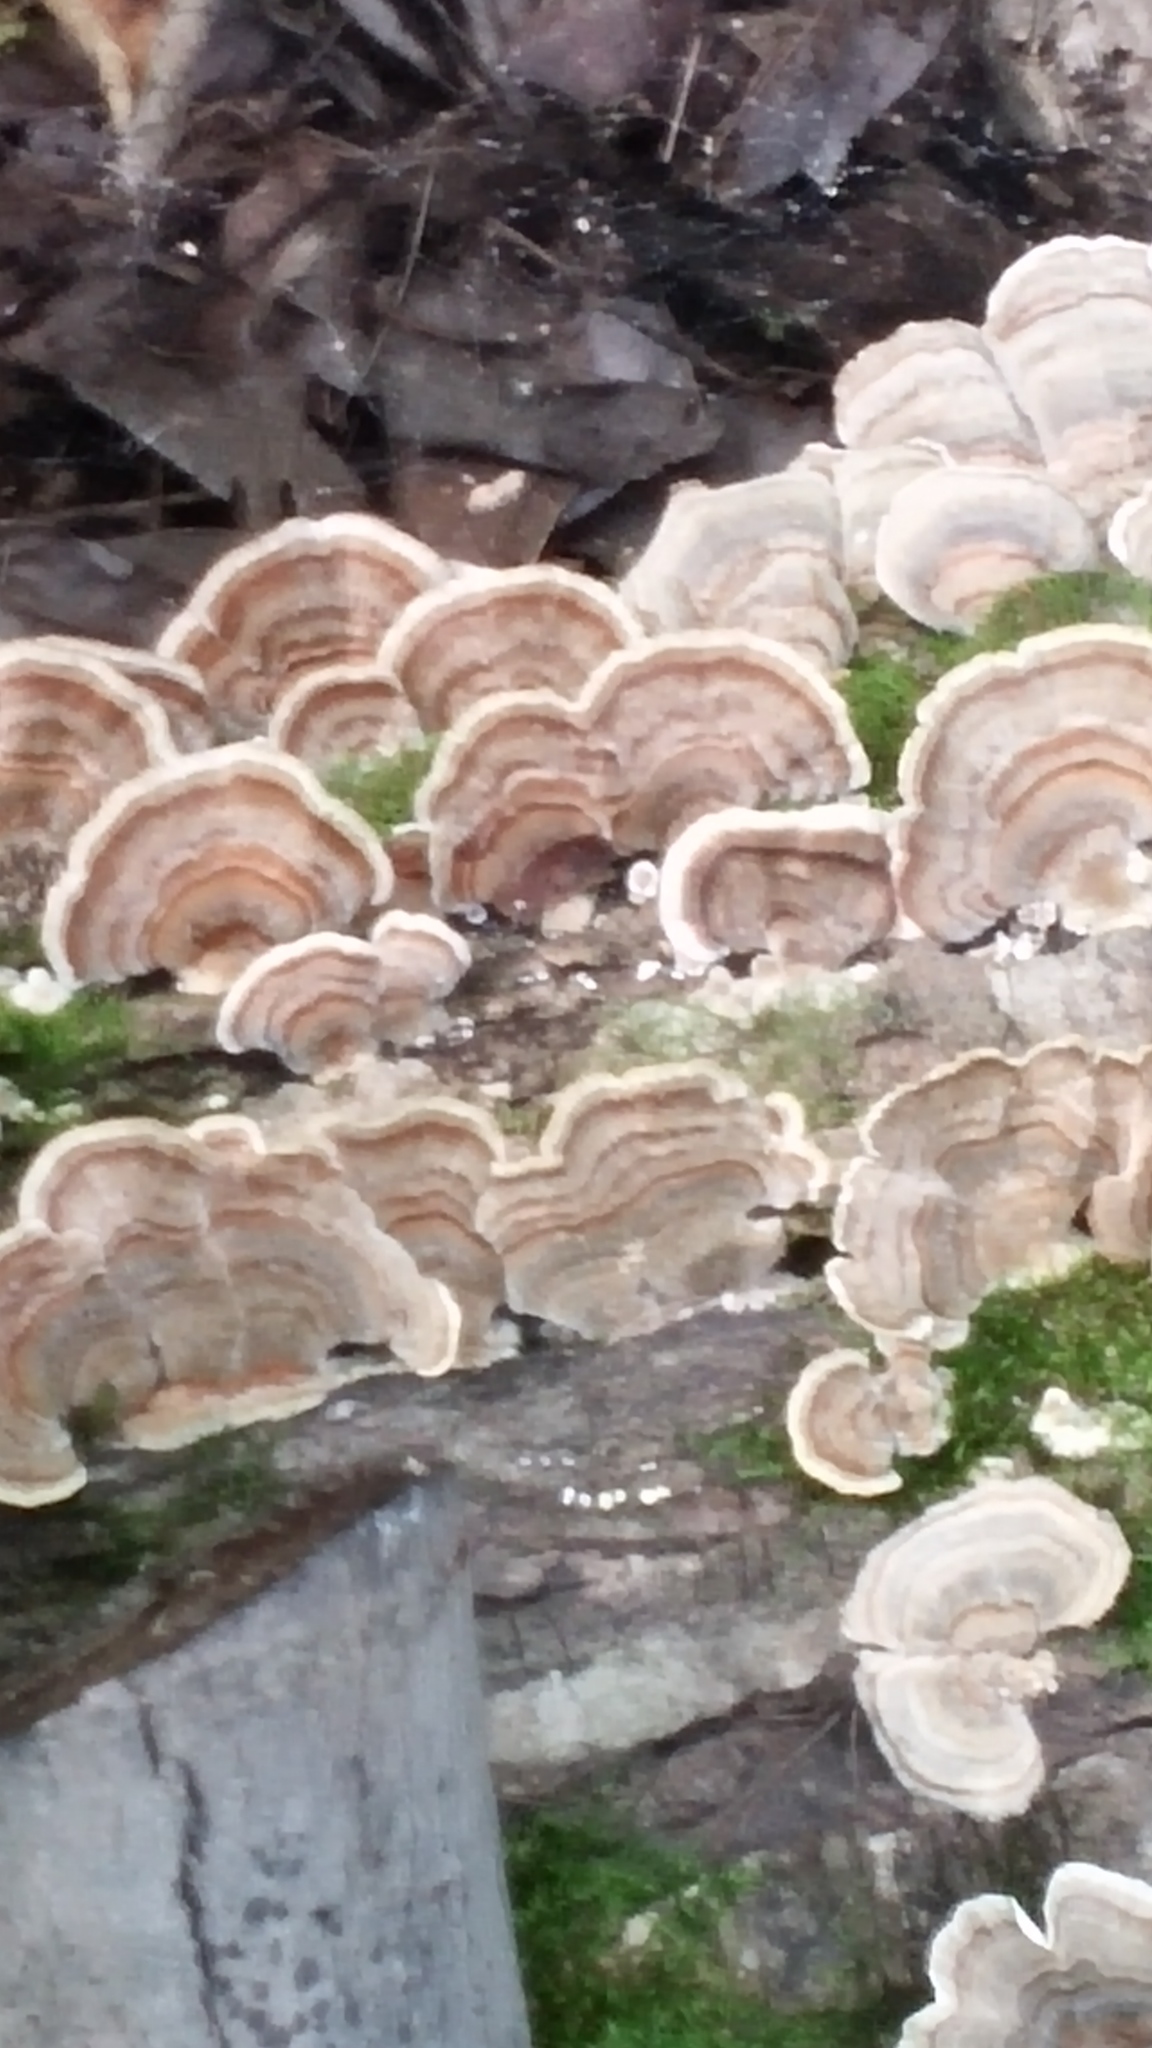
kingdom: Fungi
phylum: Basidiomycota
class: Agaricomycetes
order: Polyporales
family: Polyporaceae
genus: Trametes
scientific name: Trametes versicolor
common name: Turkeytail
